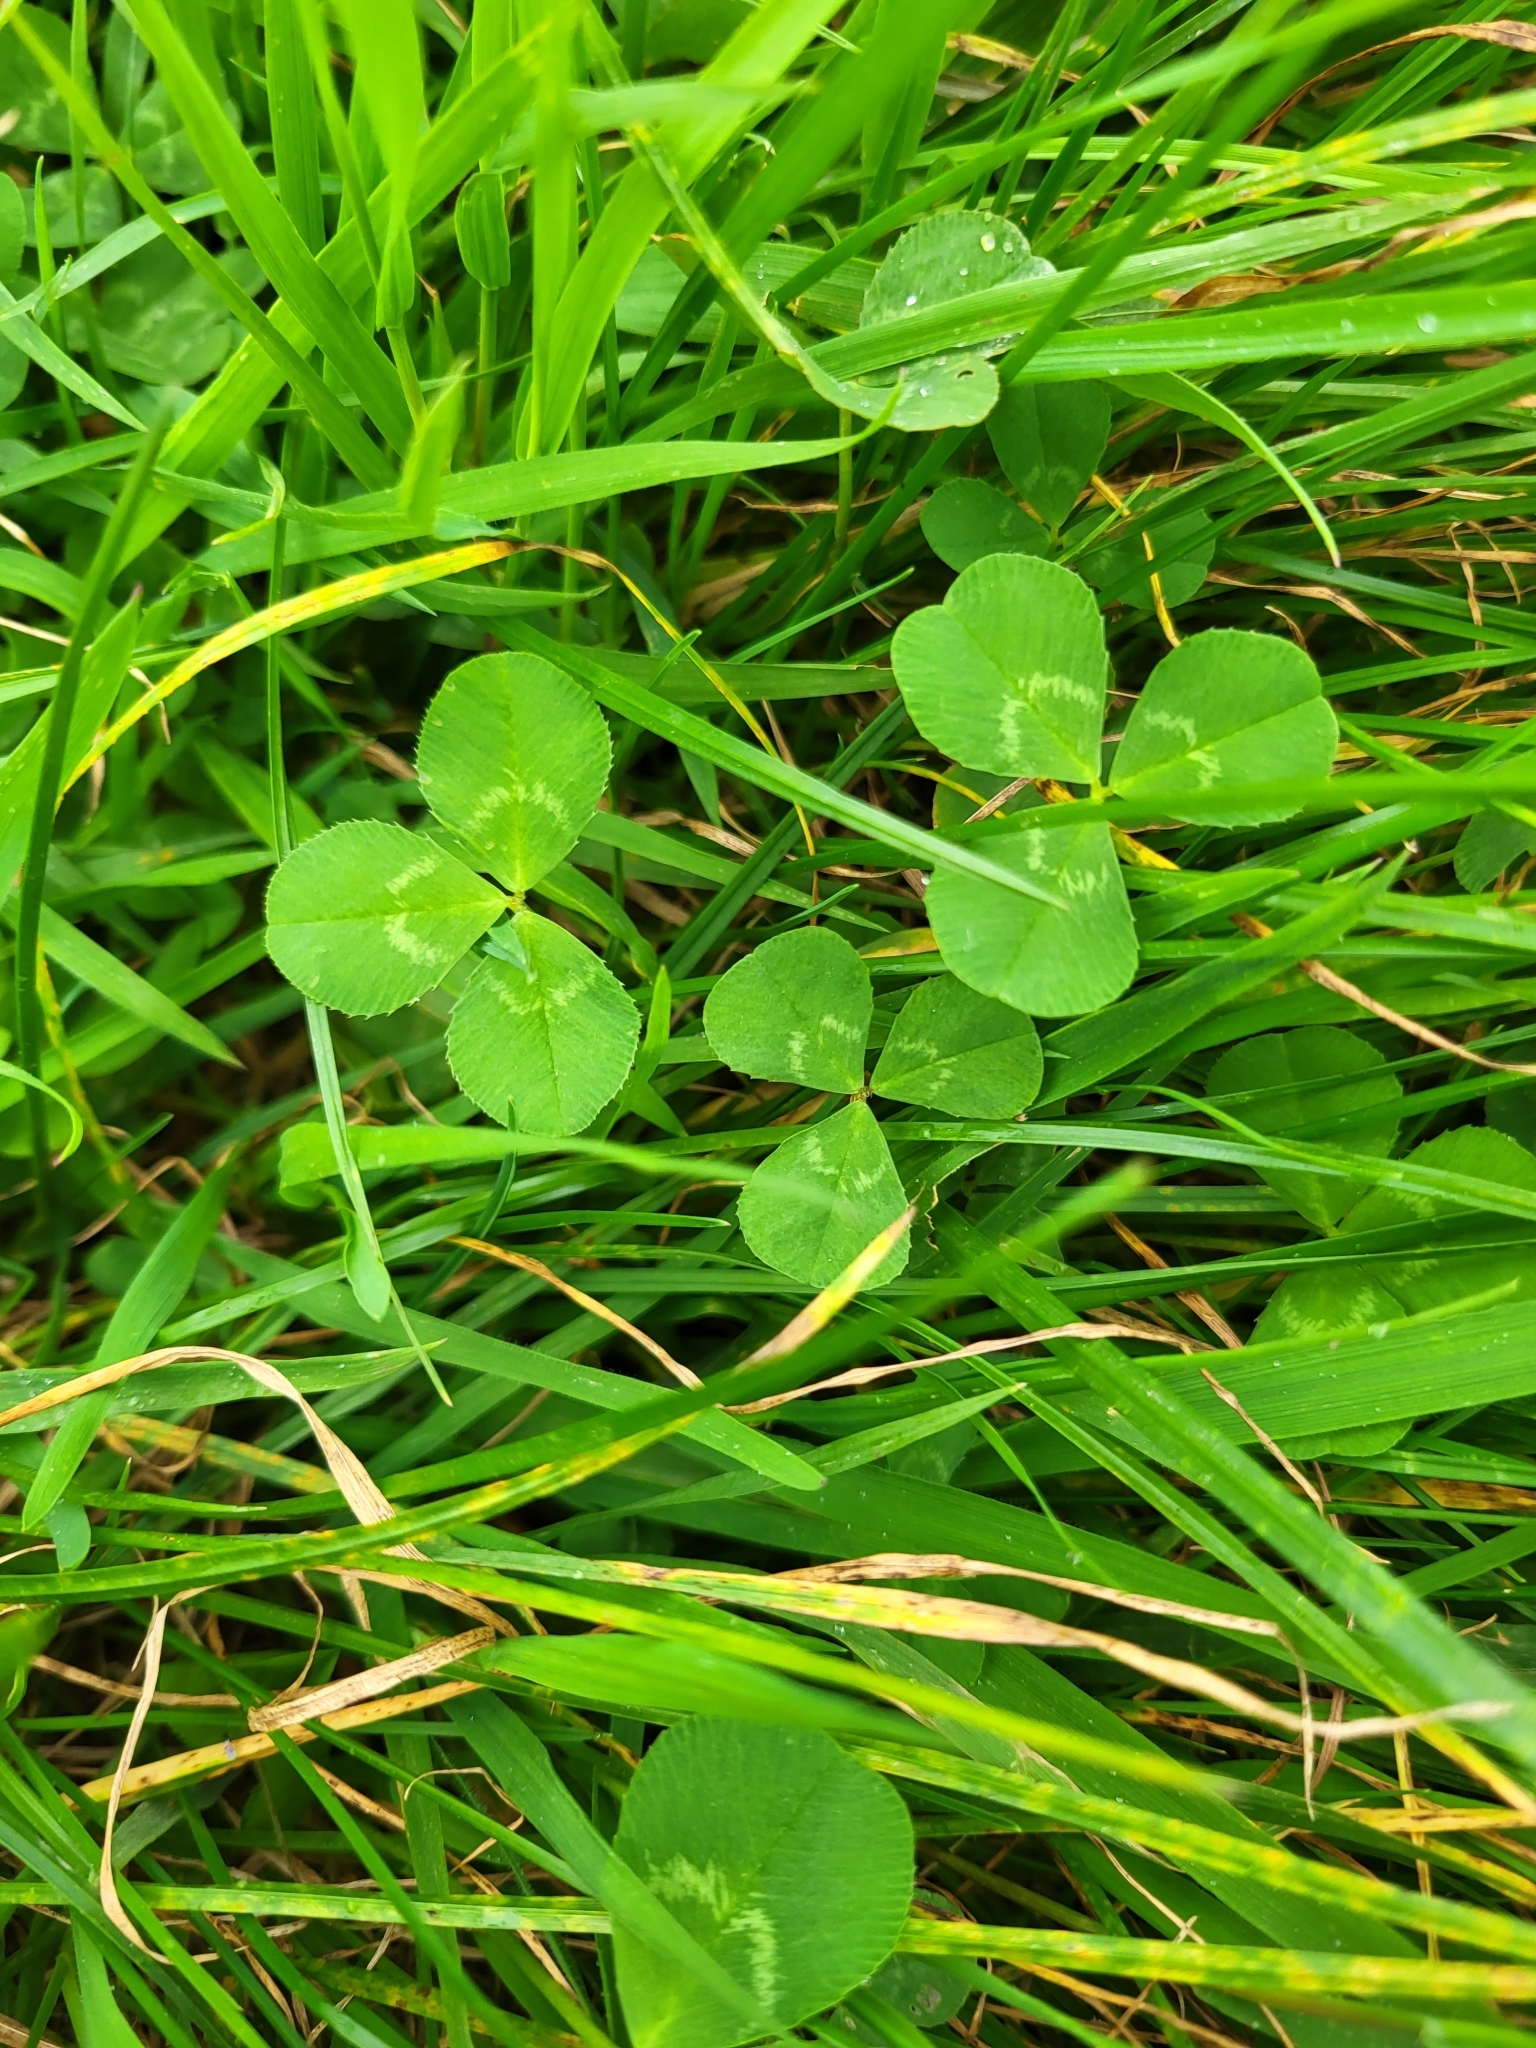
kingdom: Plantae
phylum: Tracheophyta
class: Magnoliopsida
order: Fabales
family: Fabaceae
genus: Trifolium
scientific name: Trifolium repens
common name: White clover
